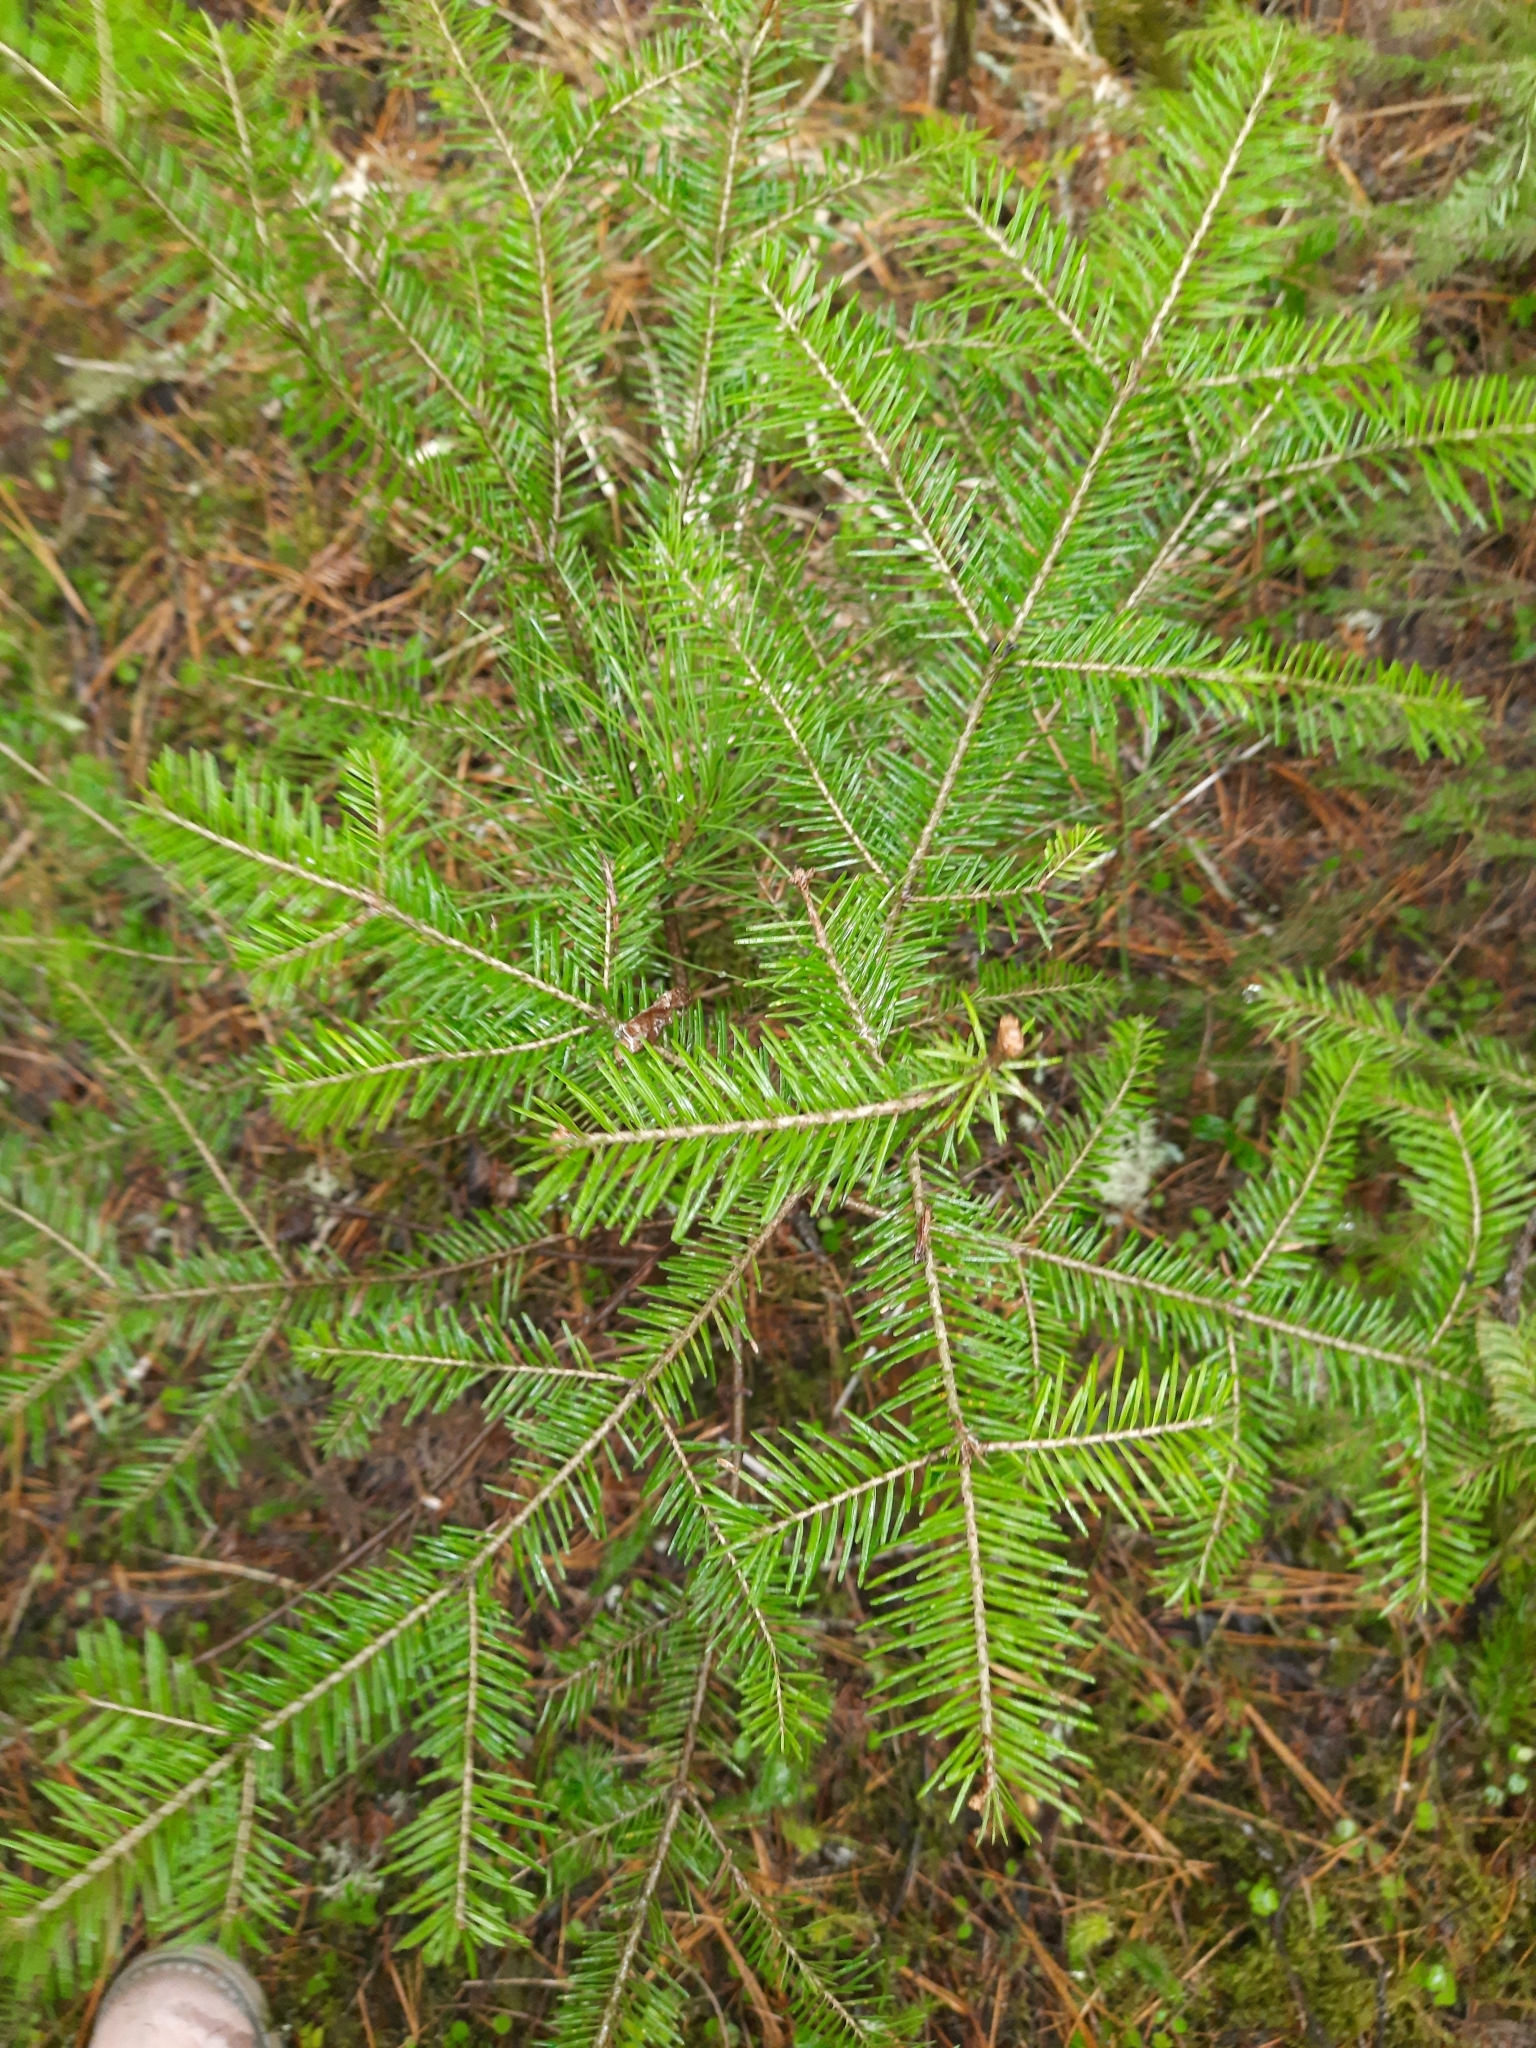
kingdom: Plantae
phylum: Tracheophyta
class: Pinopsida
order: Pinales
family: Pinaceae
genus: Abies
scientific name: Abies sibirica
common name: Siberian fir
